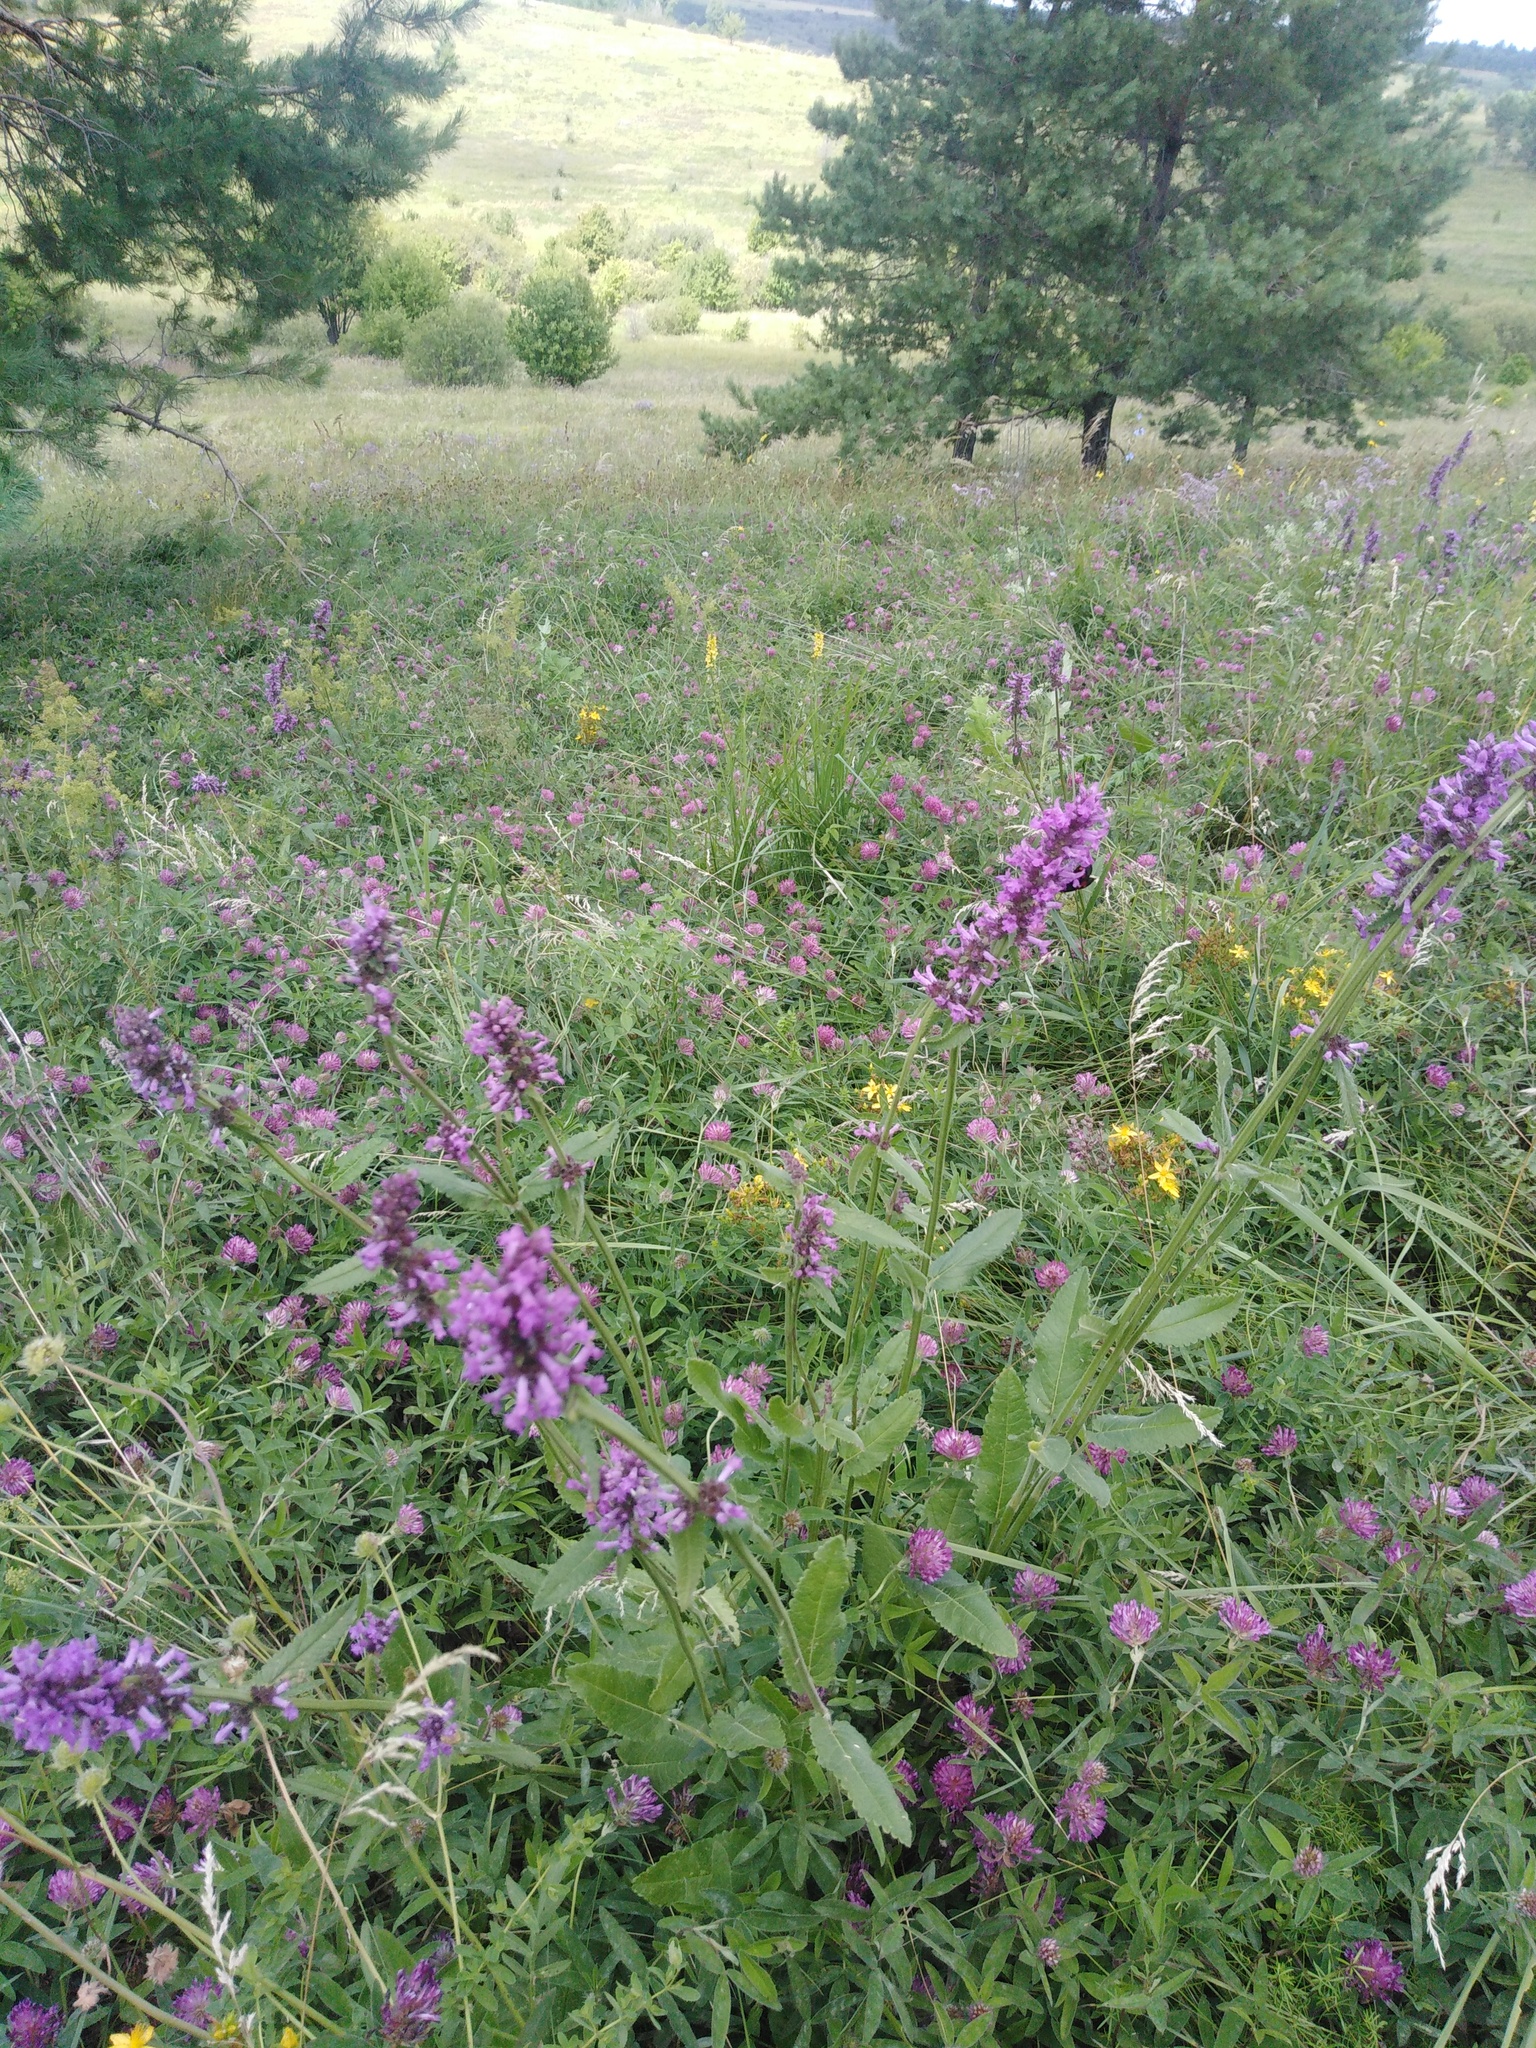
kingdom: Plantae
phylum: Tracheophyta
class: Magnoliopsida
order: Lamiales
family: Lamiaceae
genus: Betonica
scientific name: Betonica officinalis
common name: Bishop's-wort
